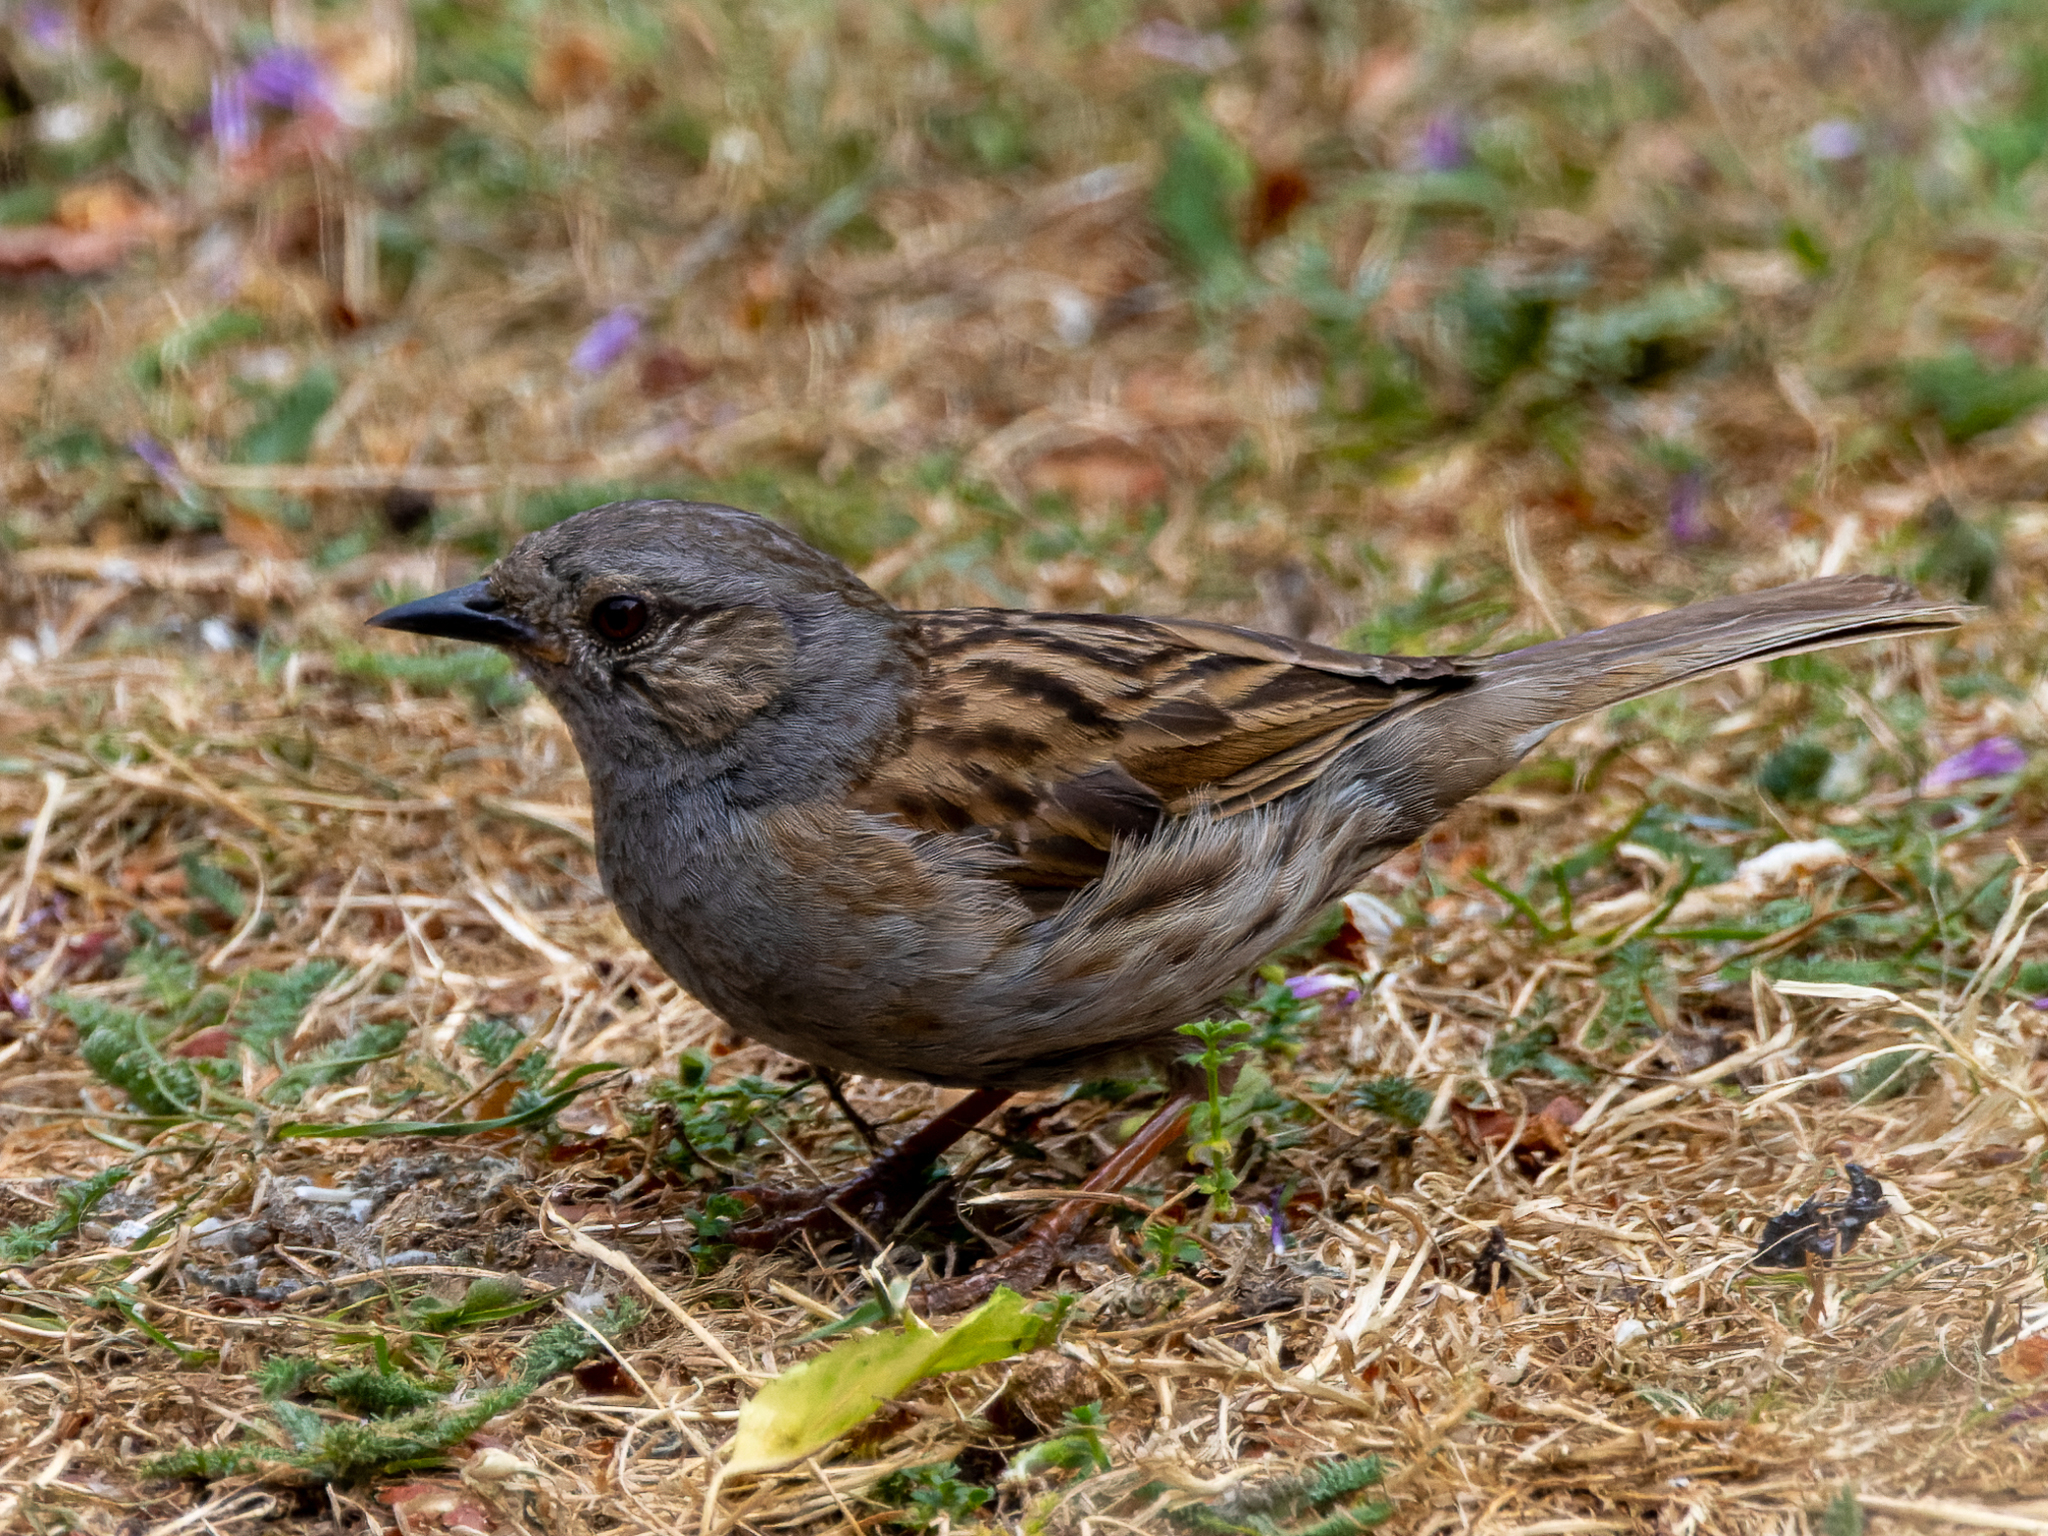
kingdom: Animalia
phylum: Chordata
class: Aves
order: Passeriformes
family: Prunellidae
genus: Prunella
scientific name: Prunella modularis
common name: Dunnock
